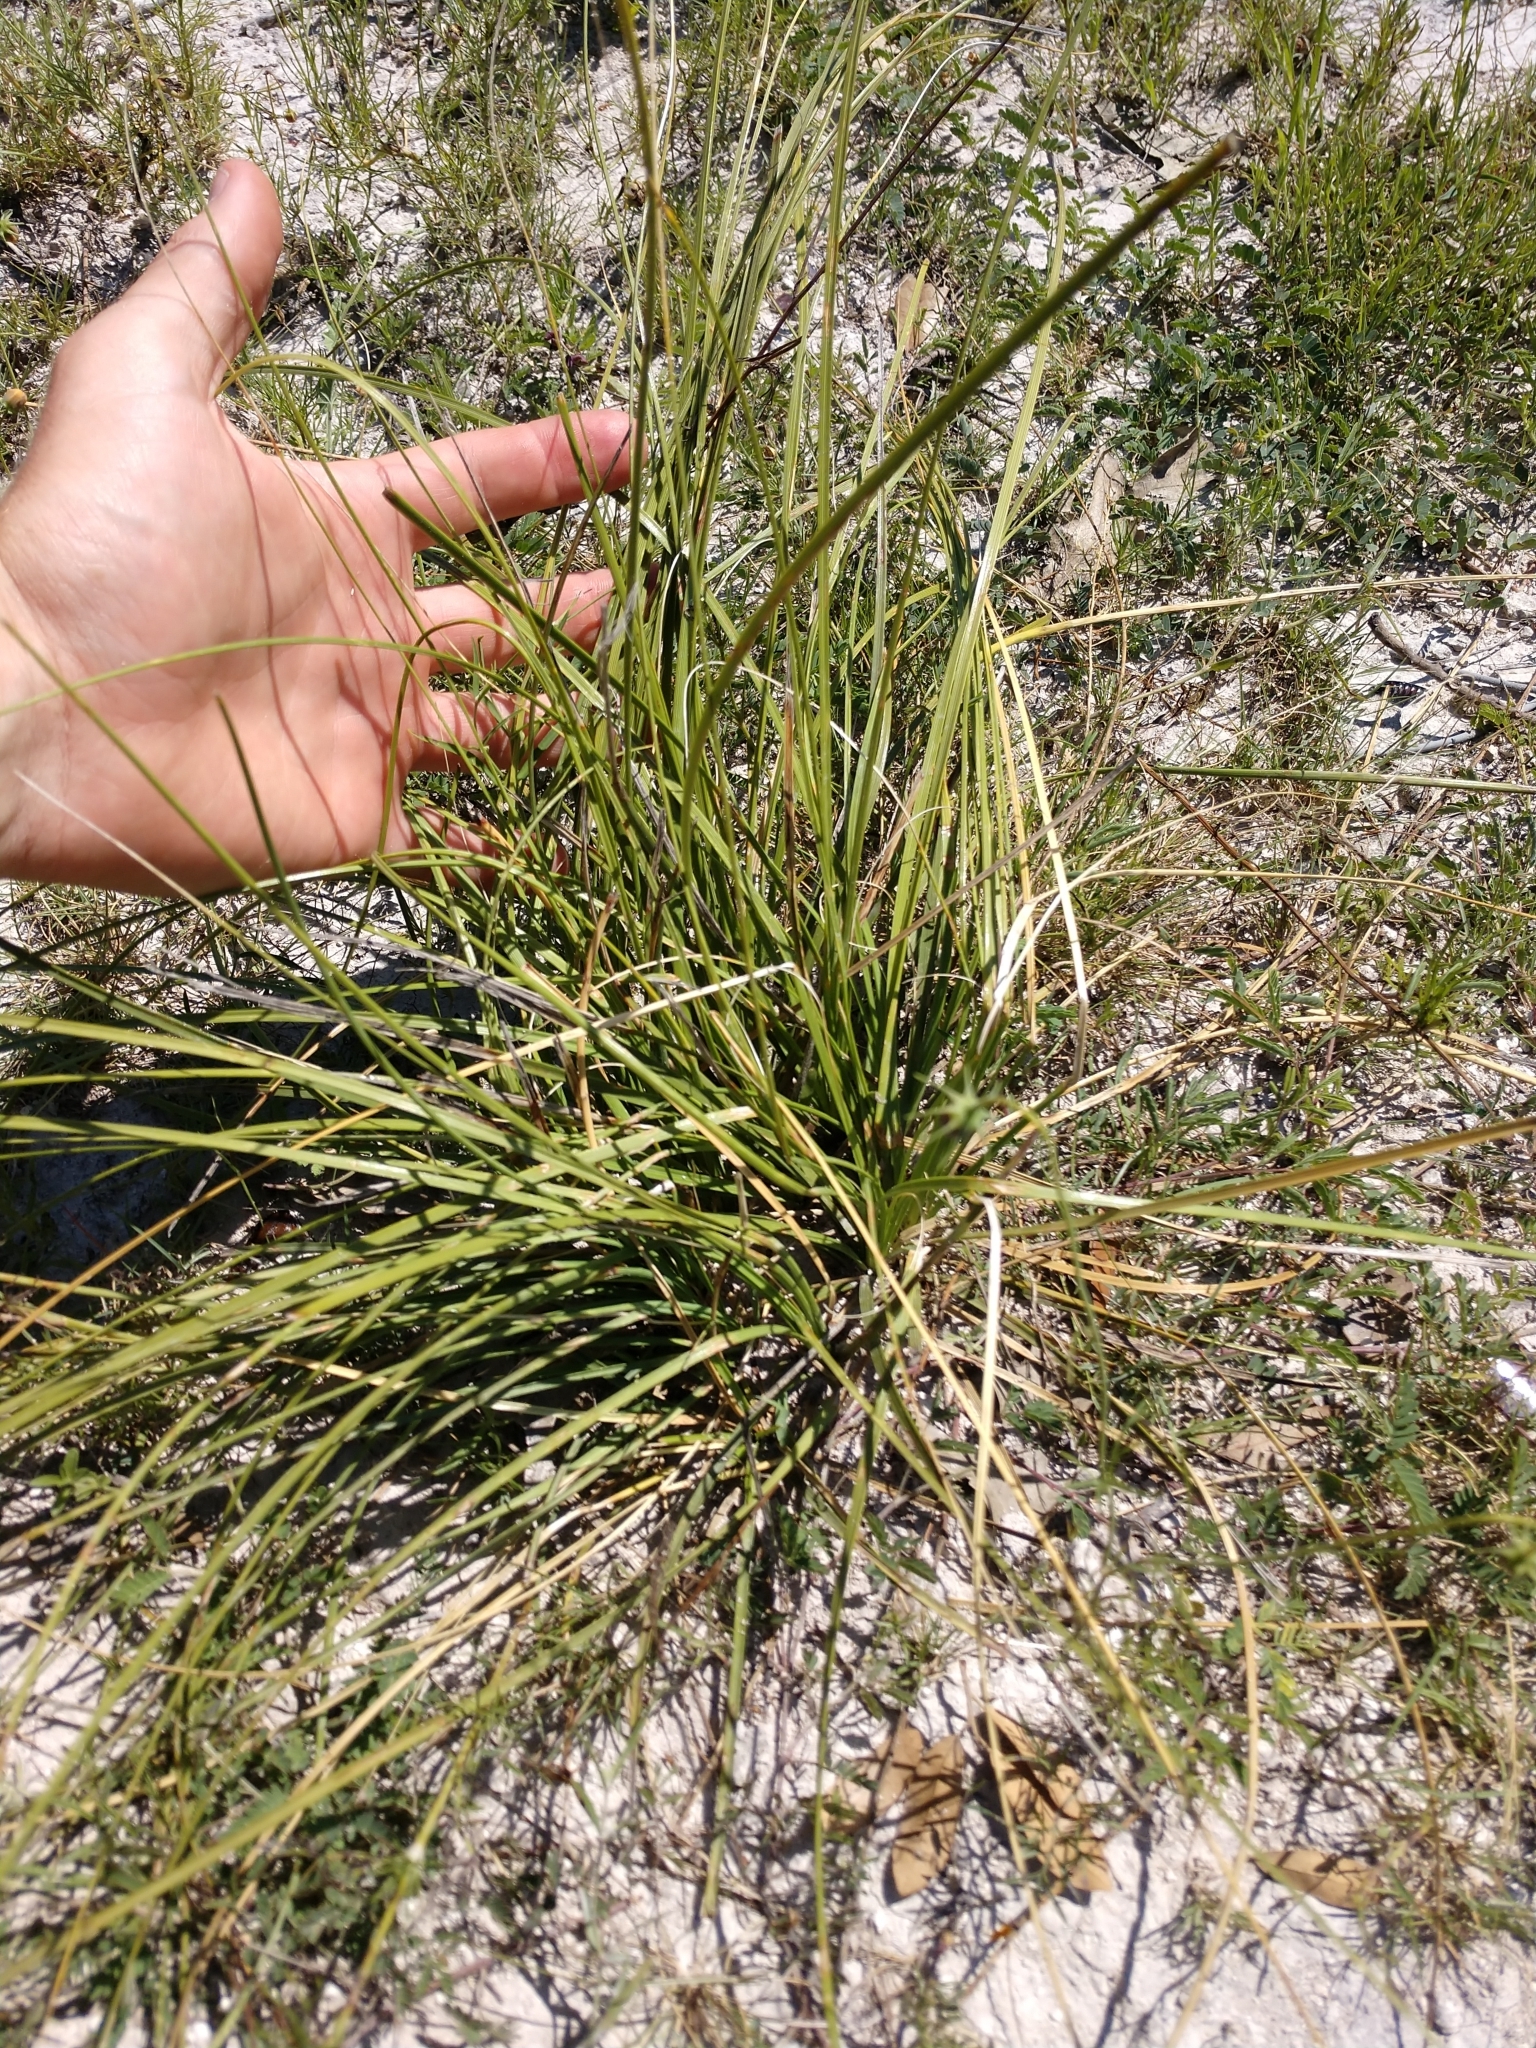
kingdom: Plantae
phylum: Tracheophyta
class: Liliopsida
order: Asparagales
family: Asparagaceae
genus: Nolina
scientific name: Nolina texana
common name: Texas sacahuiste
